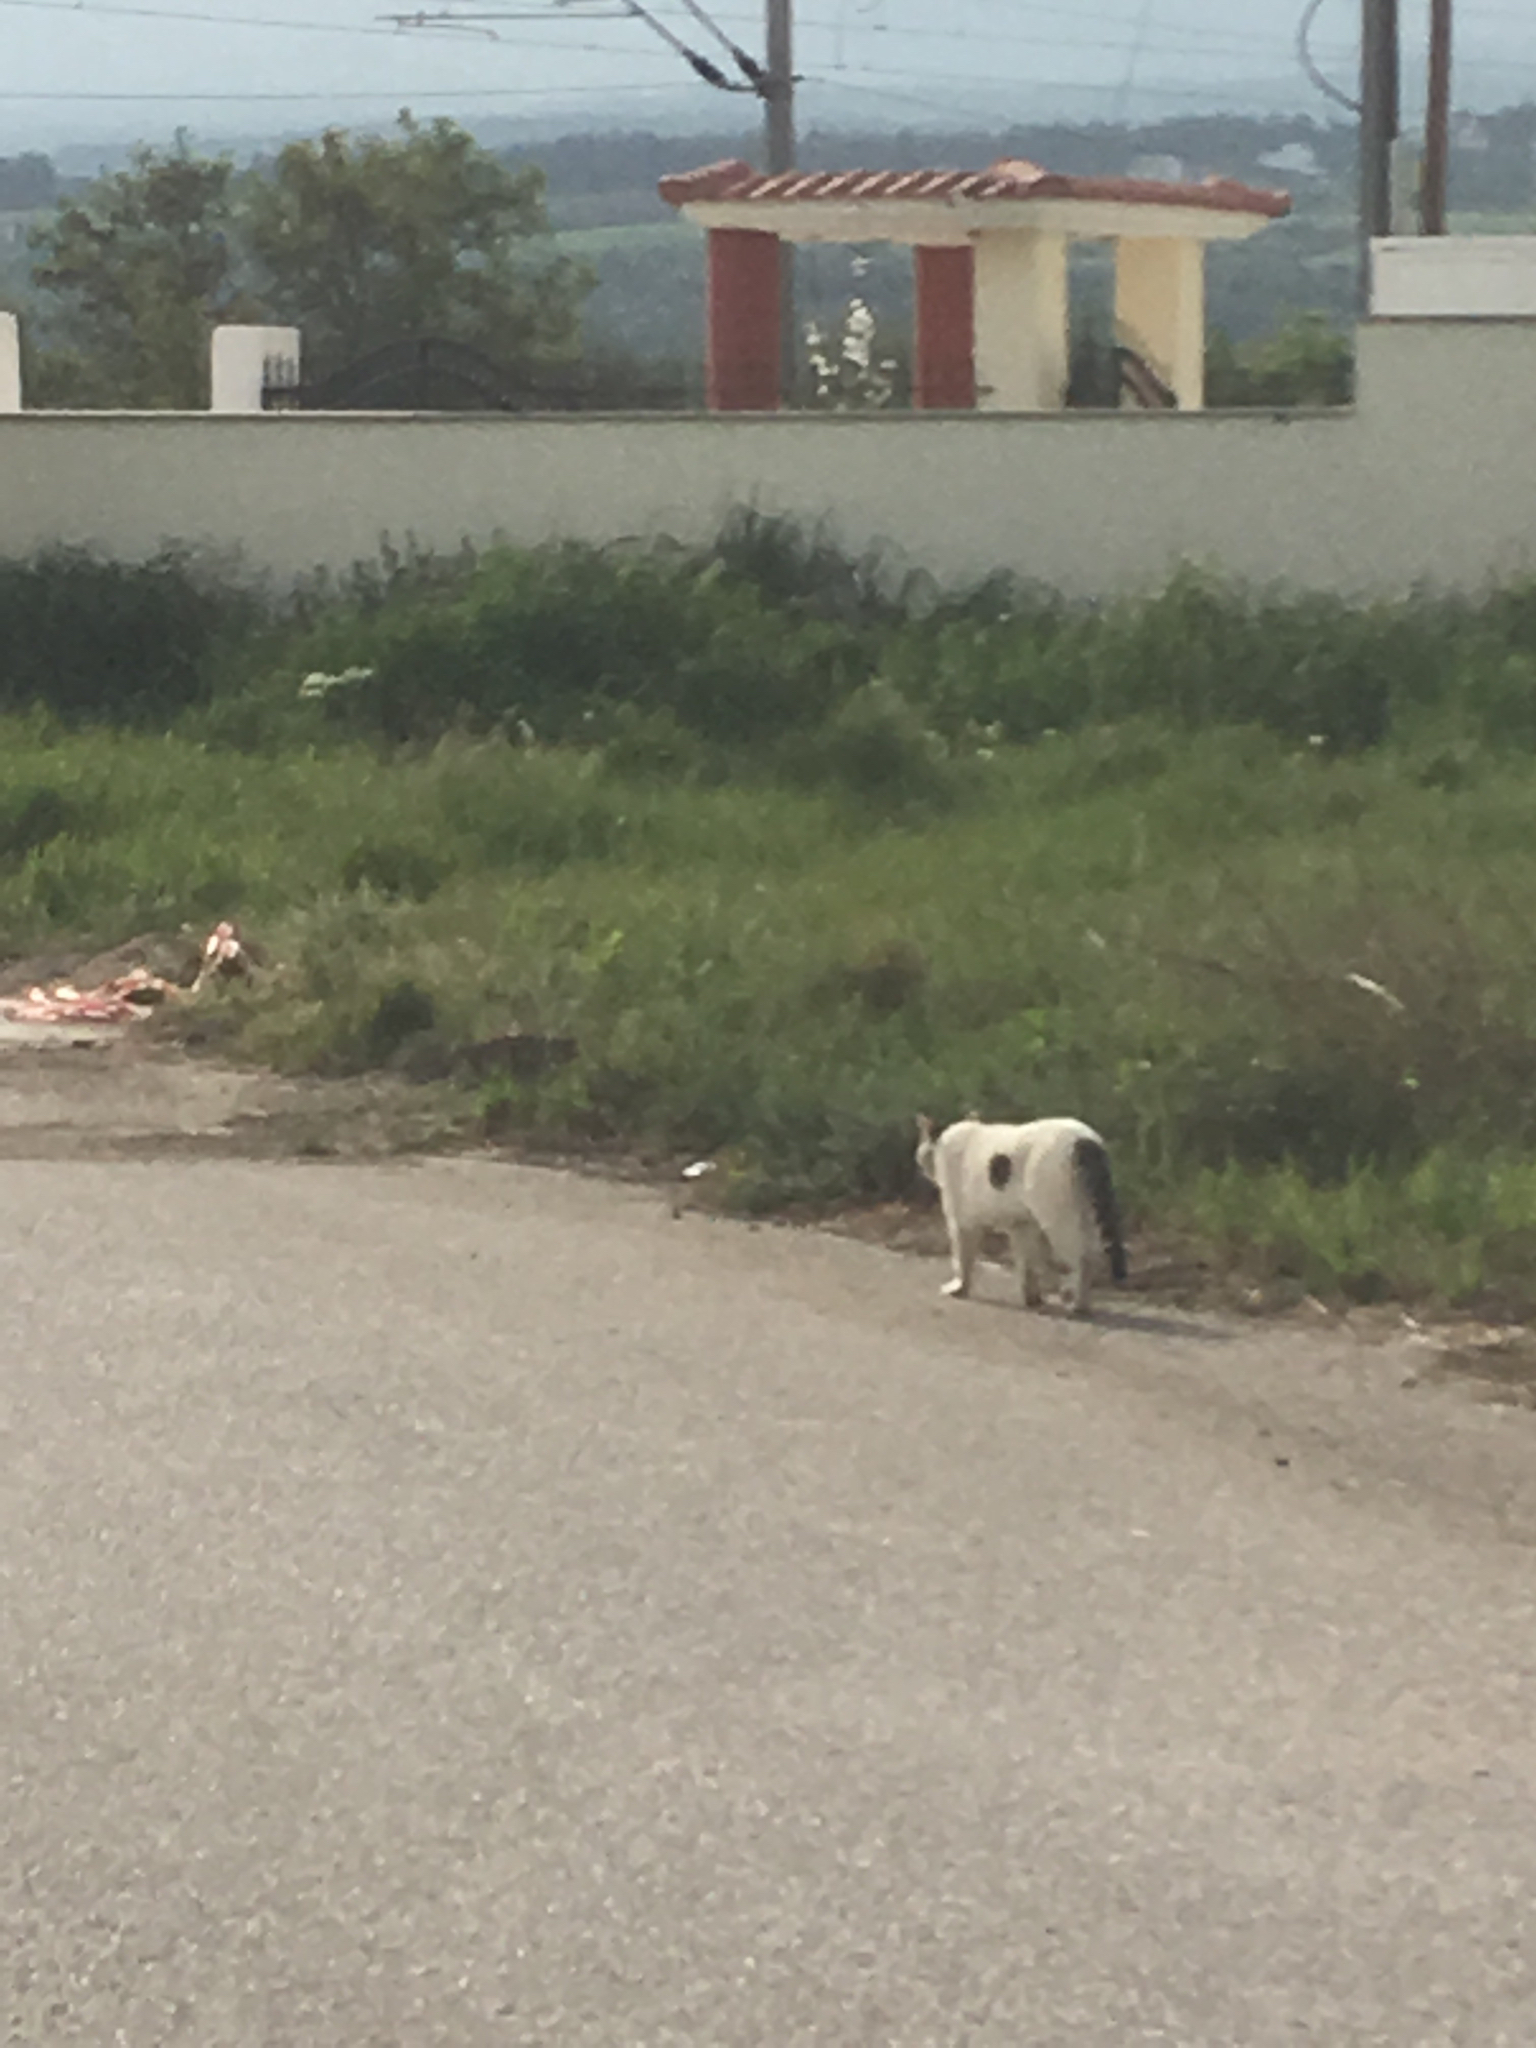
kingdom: Animalia
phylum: Chordata
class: Mammalia
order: Carnivora
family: Felidae
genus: Felis
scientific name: Felis catus
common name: Domestic cat
